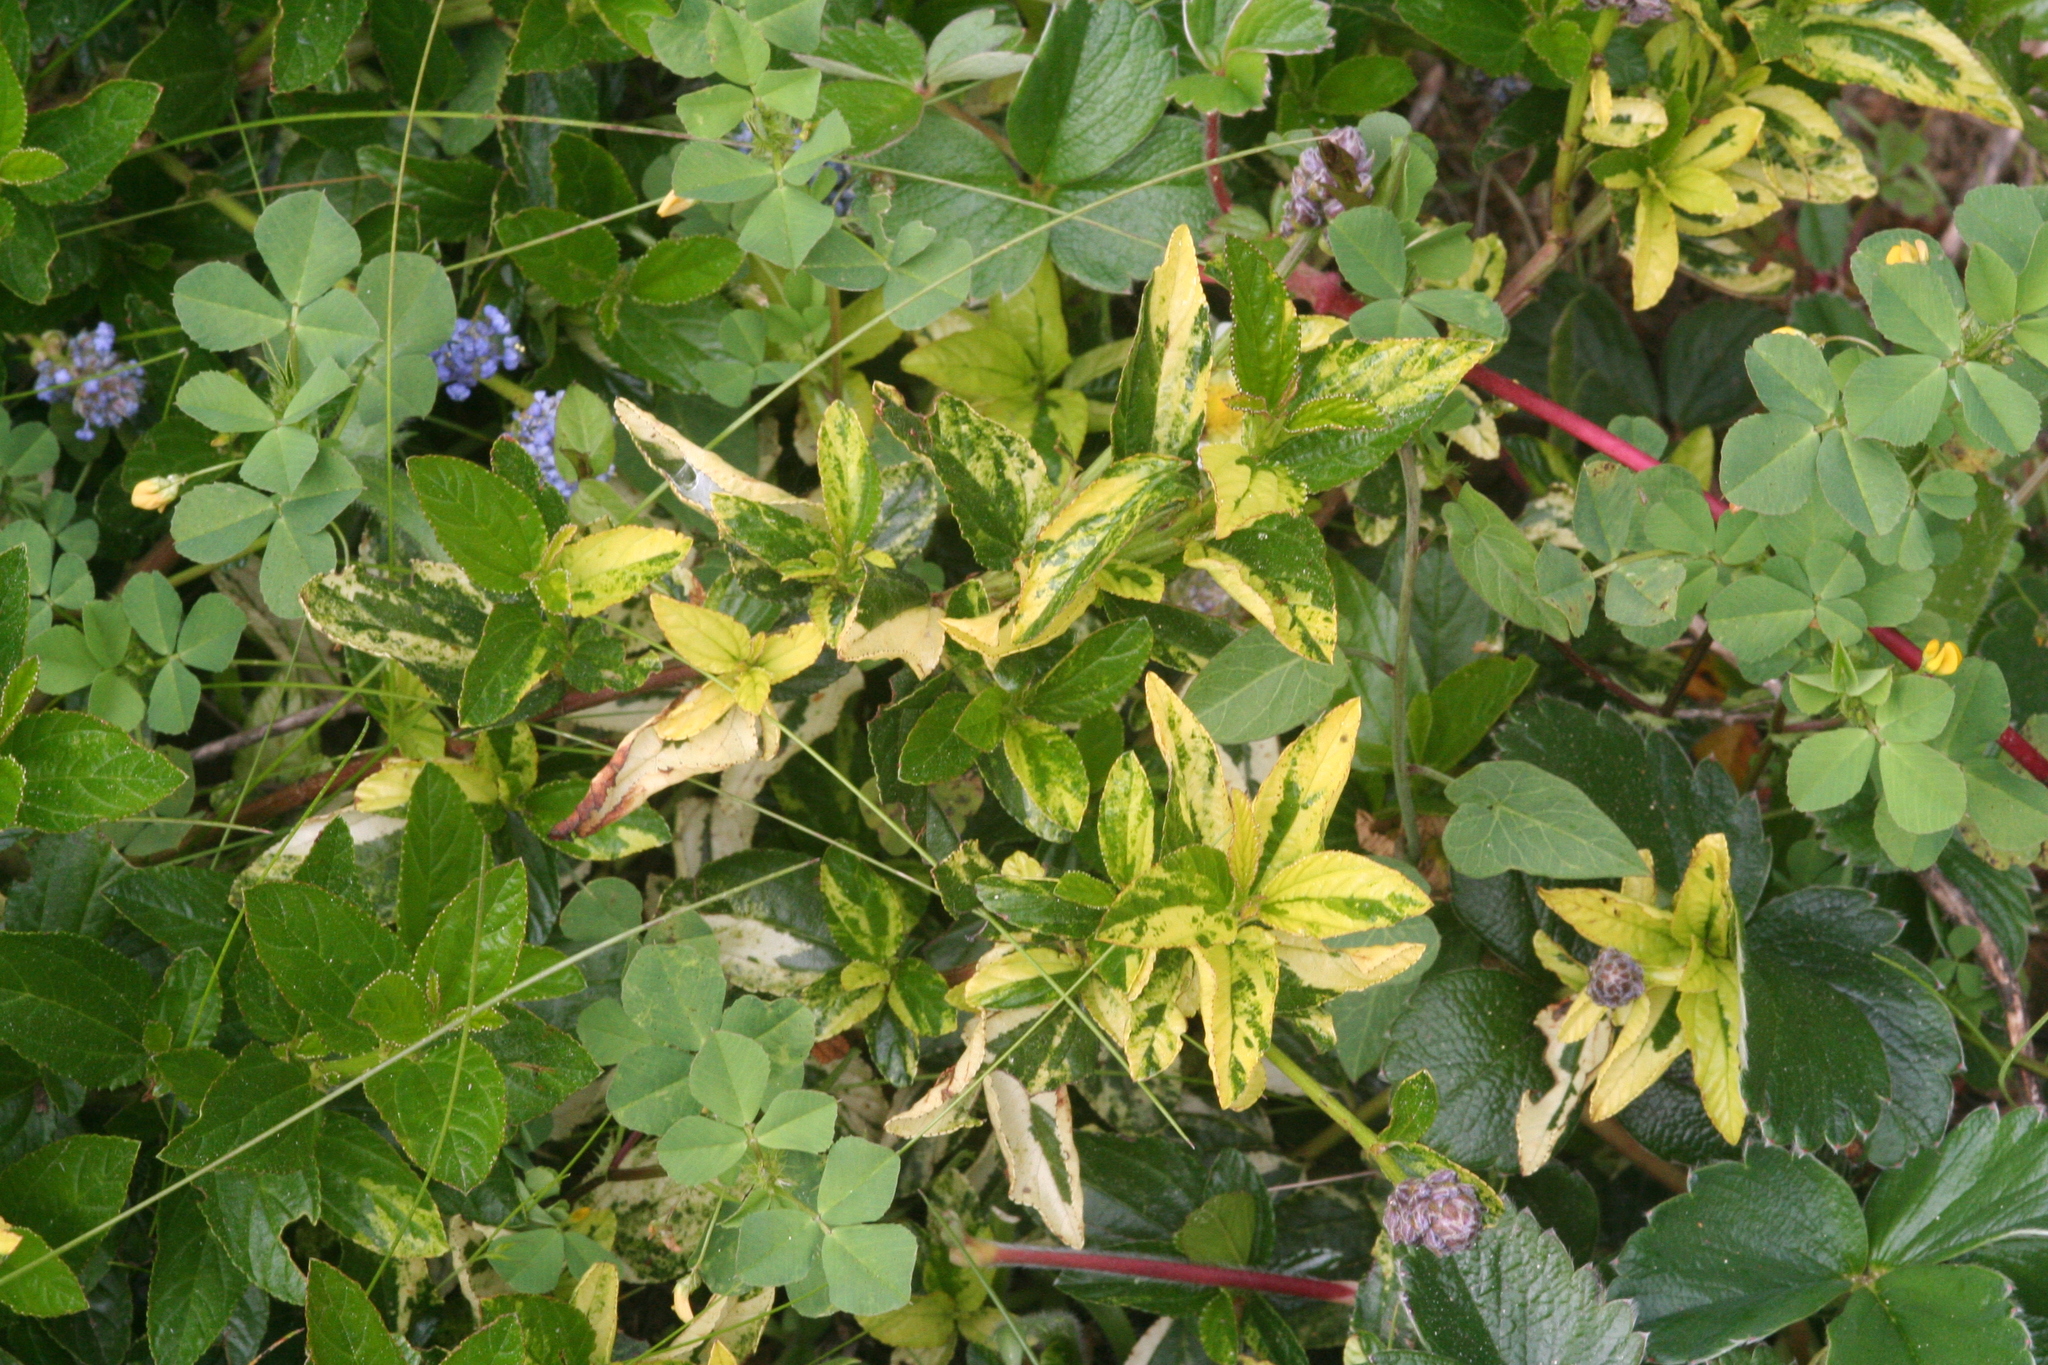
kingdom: Plantae
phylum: Tracheophyta
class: Magnoliopsida
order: Rosales
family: Rhamnaceae
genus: Ceanothus
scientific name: Ceanothus thyrsiflorus
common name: California-lilac
